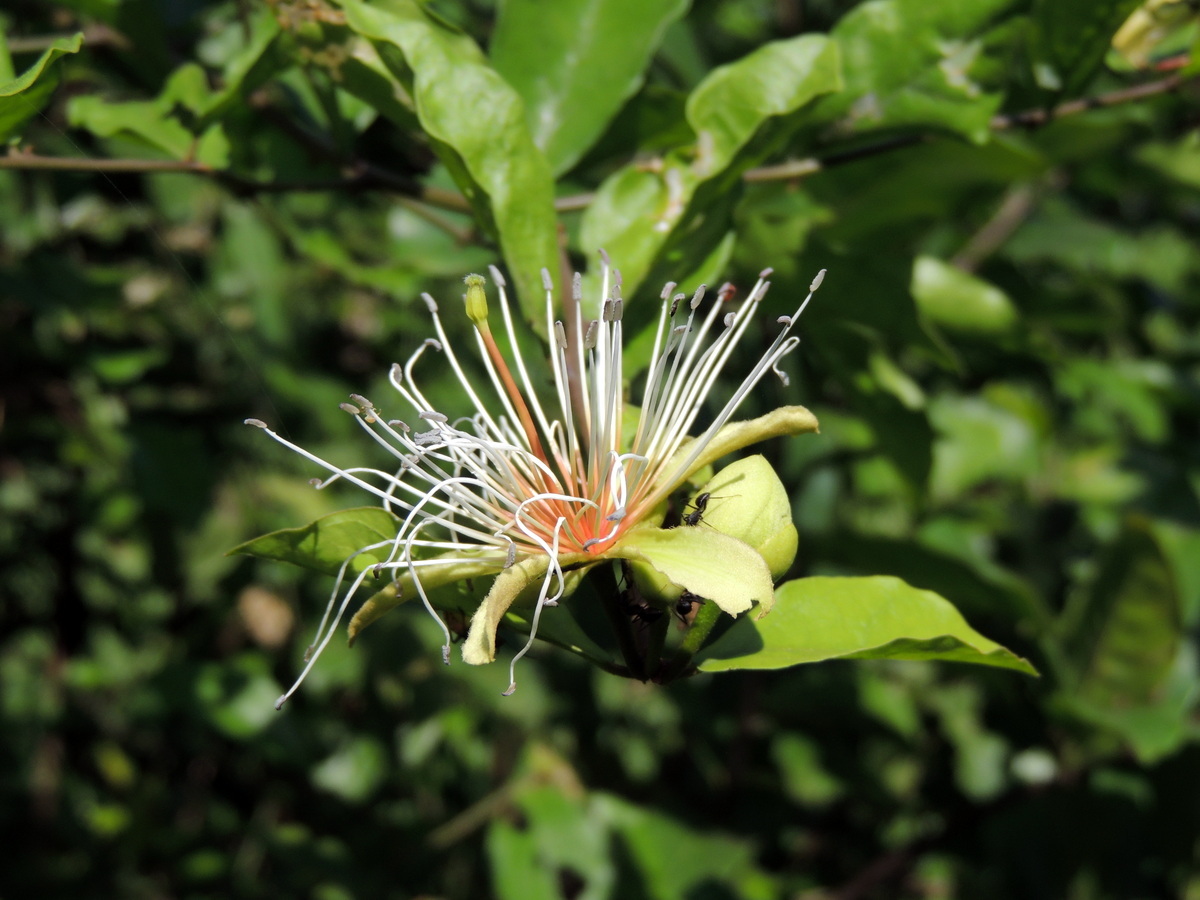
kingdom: Plantae
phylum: Tracheophyta
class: Magnoliopsida
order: Brassicales
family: Capparaceae
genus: Capparis
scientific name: Capparis erythrocarpos
